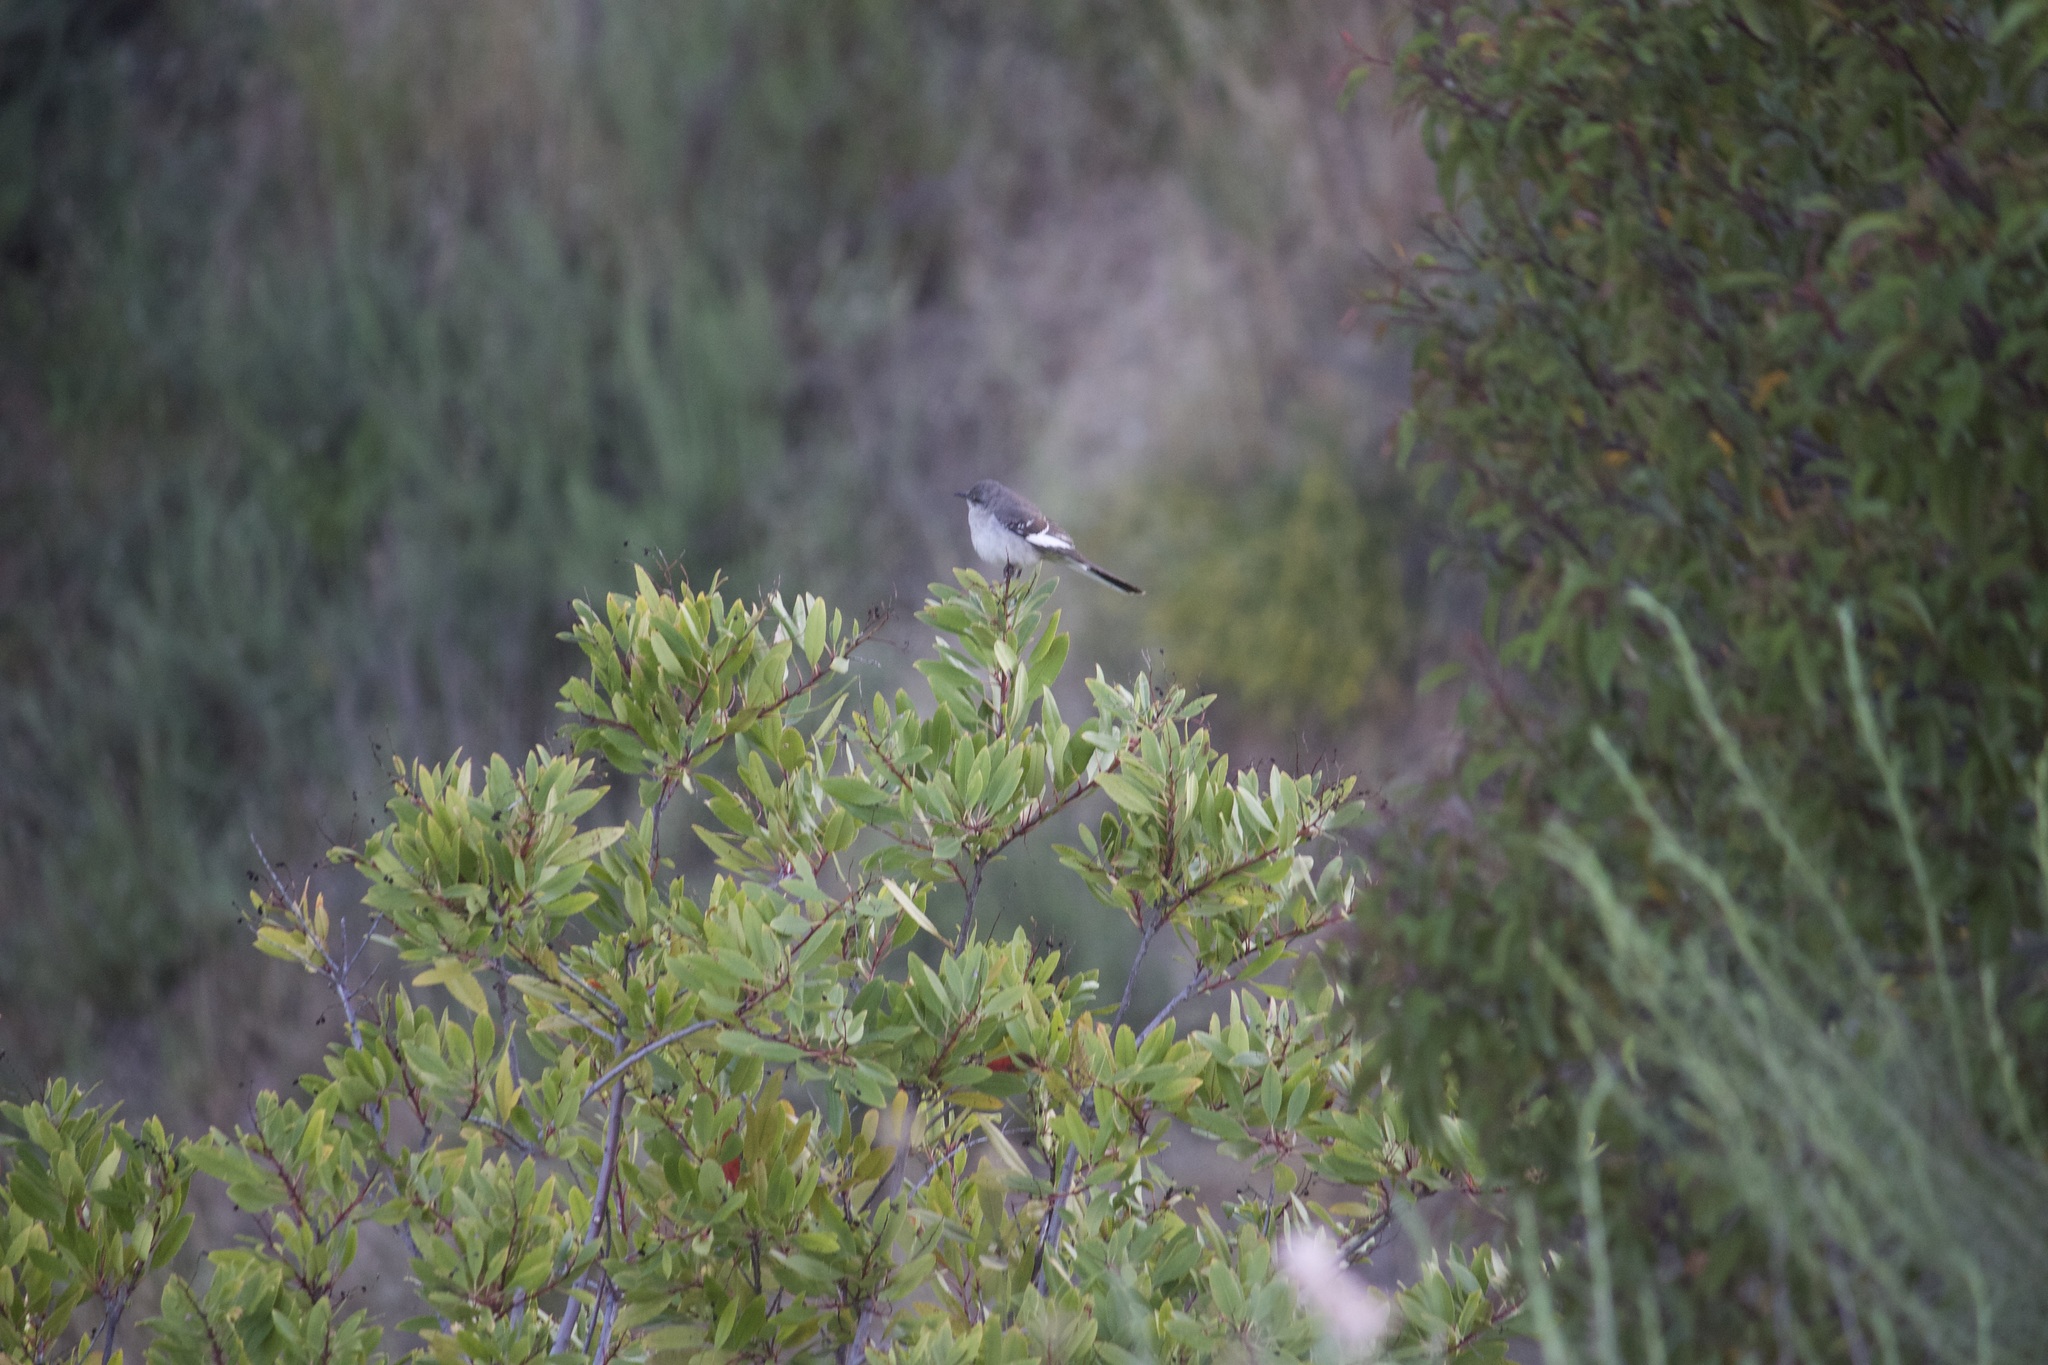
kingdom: Animalia
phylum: Chordata
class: Aves
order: Passeriformes
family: Mimidae
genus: Mimus
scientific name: Mimus polyglottos
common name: Northern mockingbird
